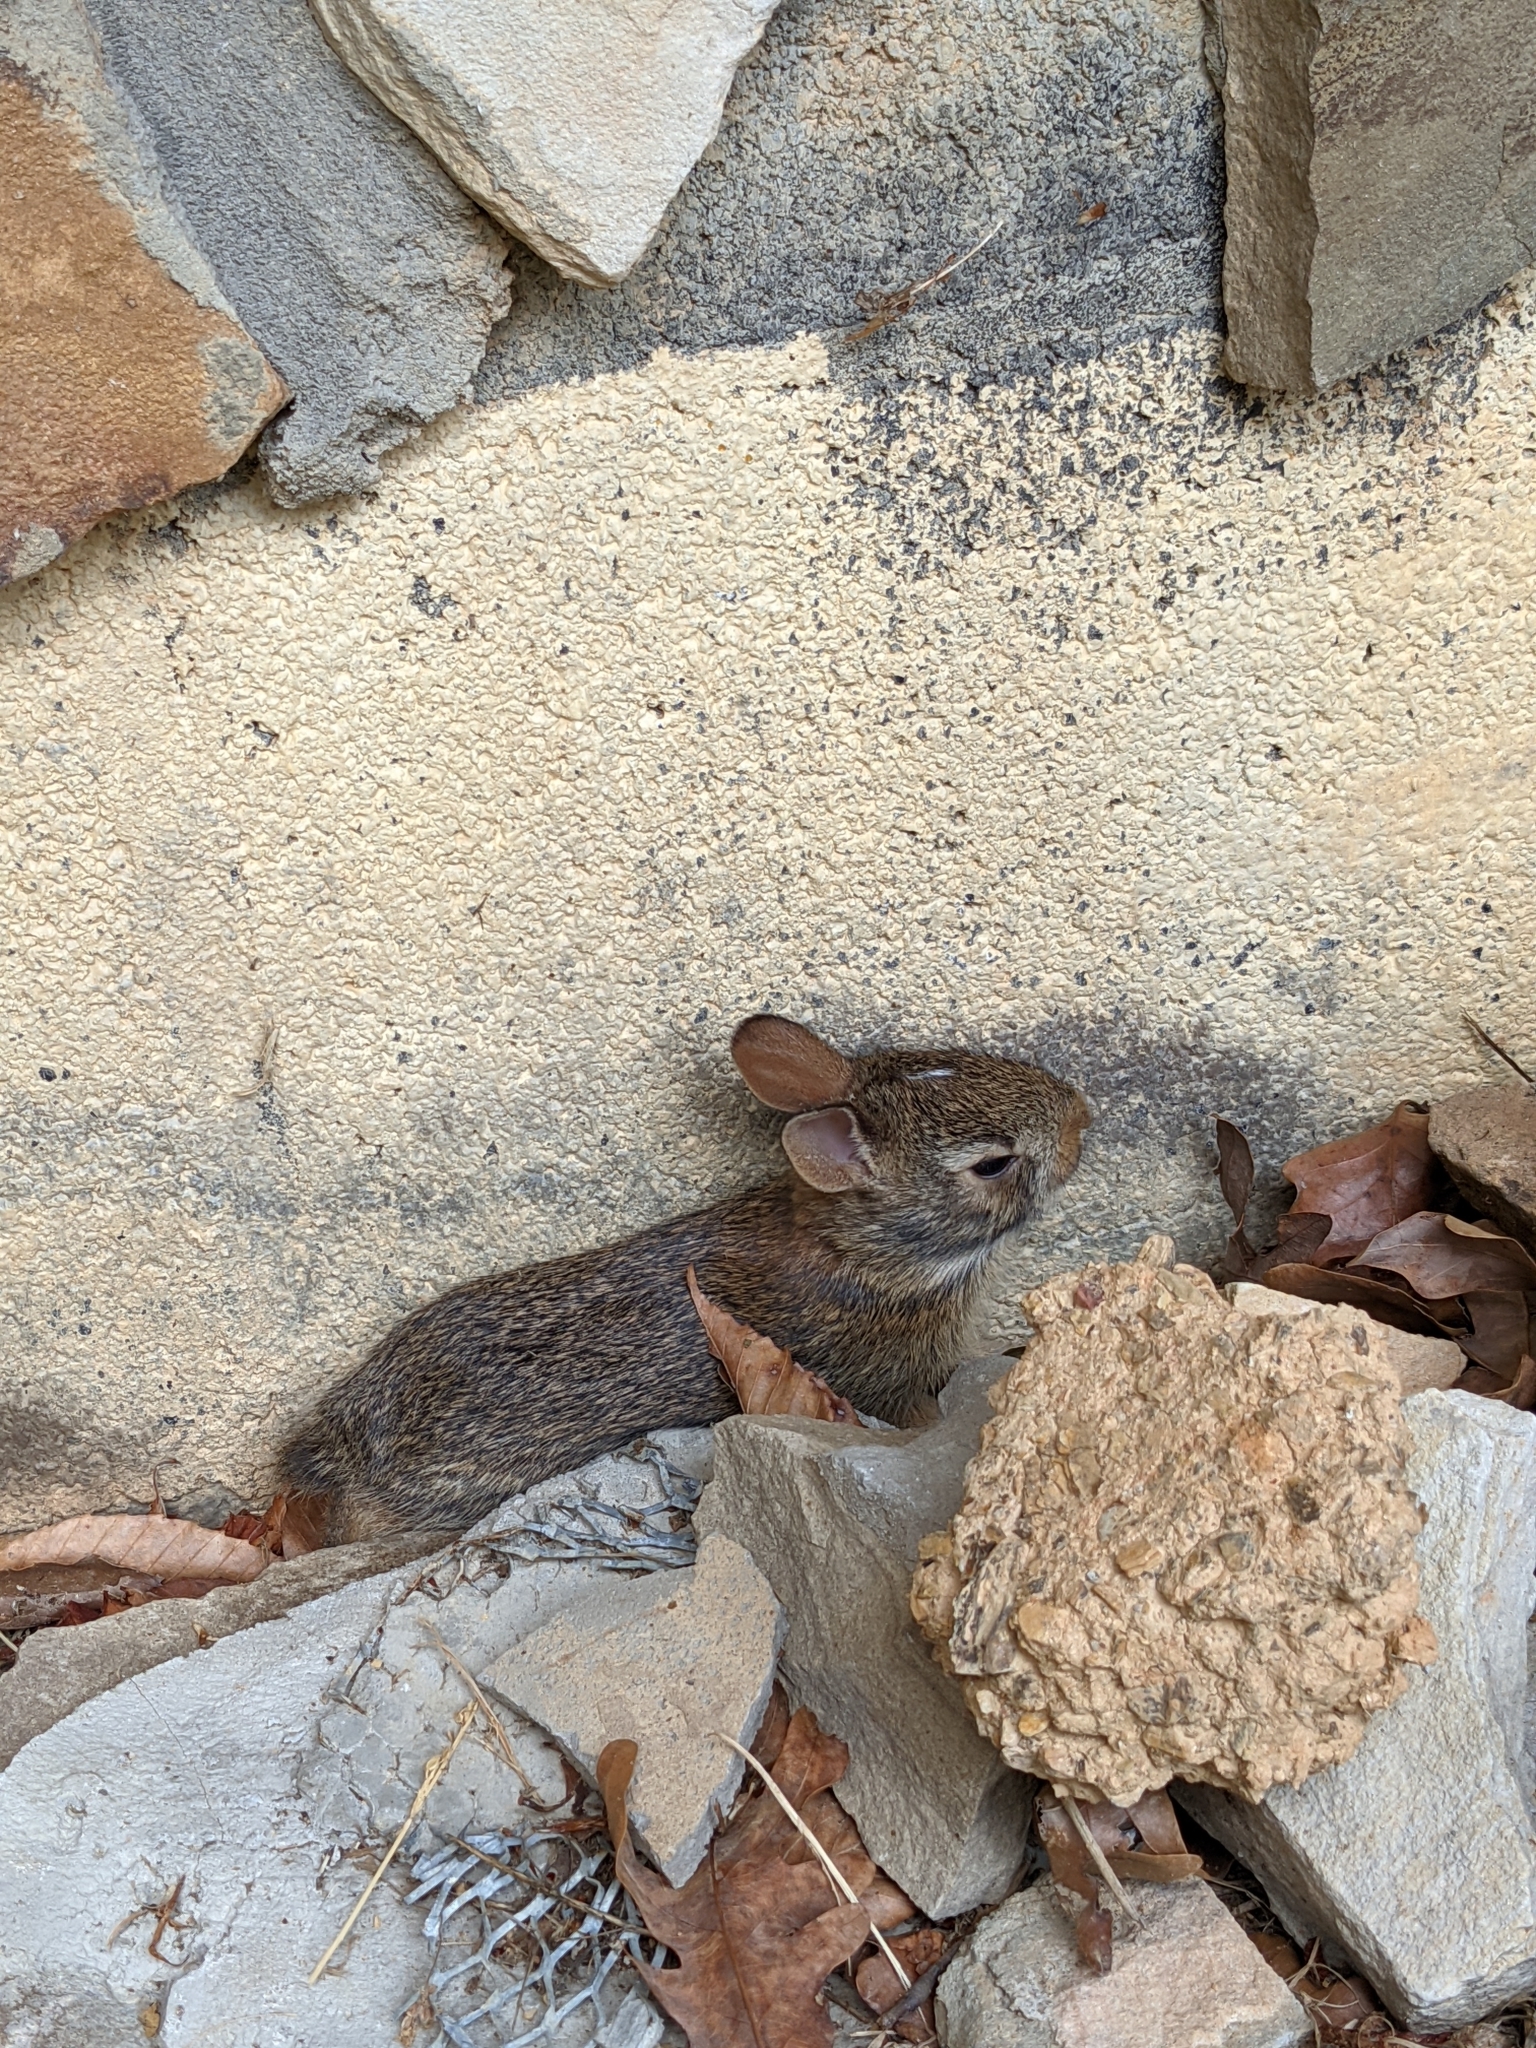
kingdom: Animalia
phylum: Chordata
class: Mammalia
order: Lagomorpha
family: Leporidae
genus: Sylvilagus
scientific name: Sylvilagus floridanus
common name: Eastern cottontail
